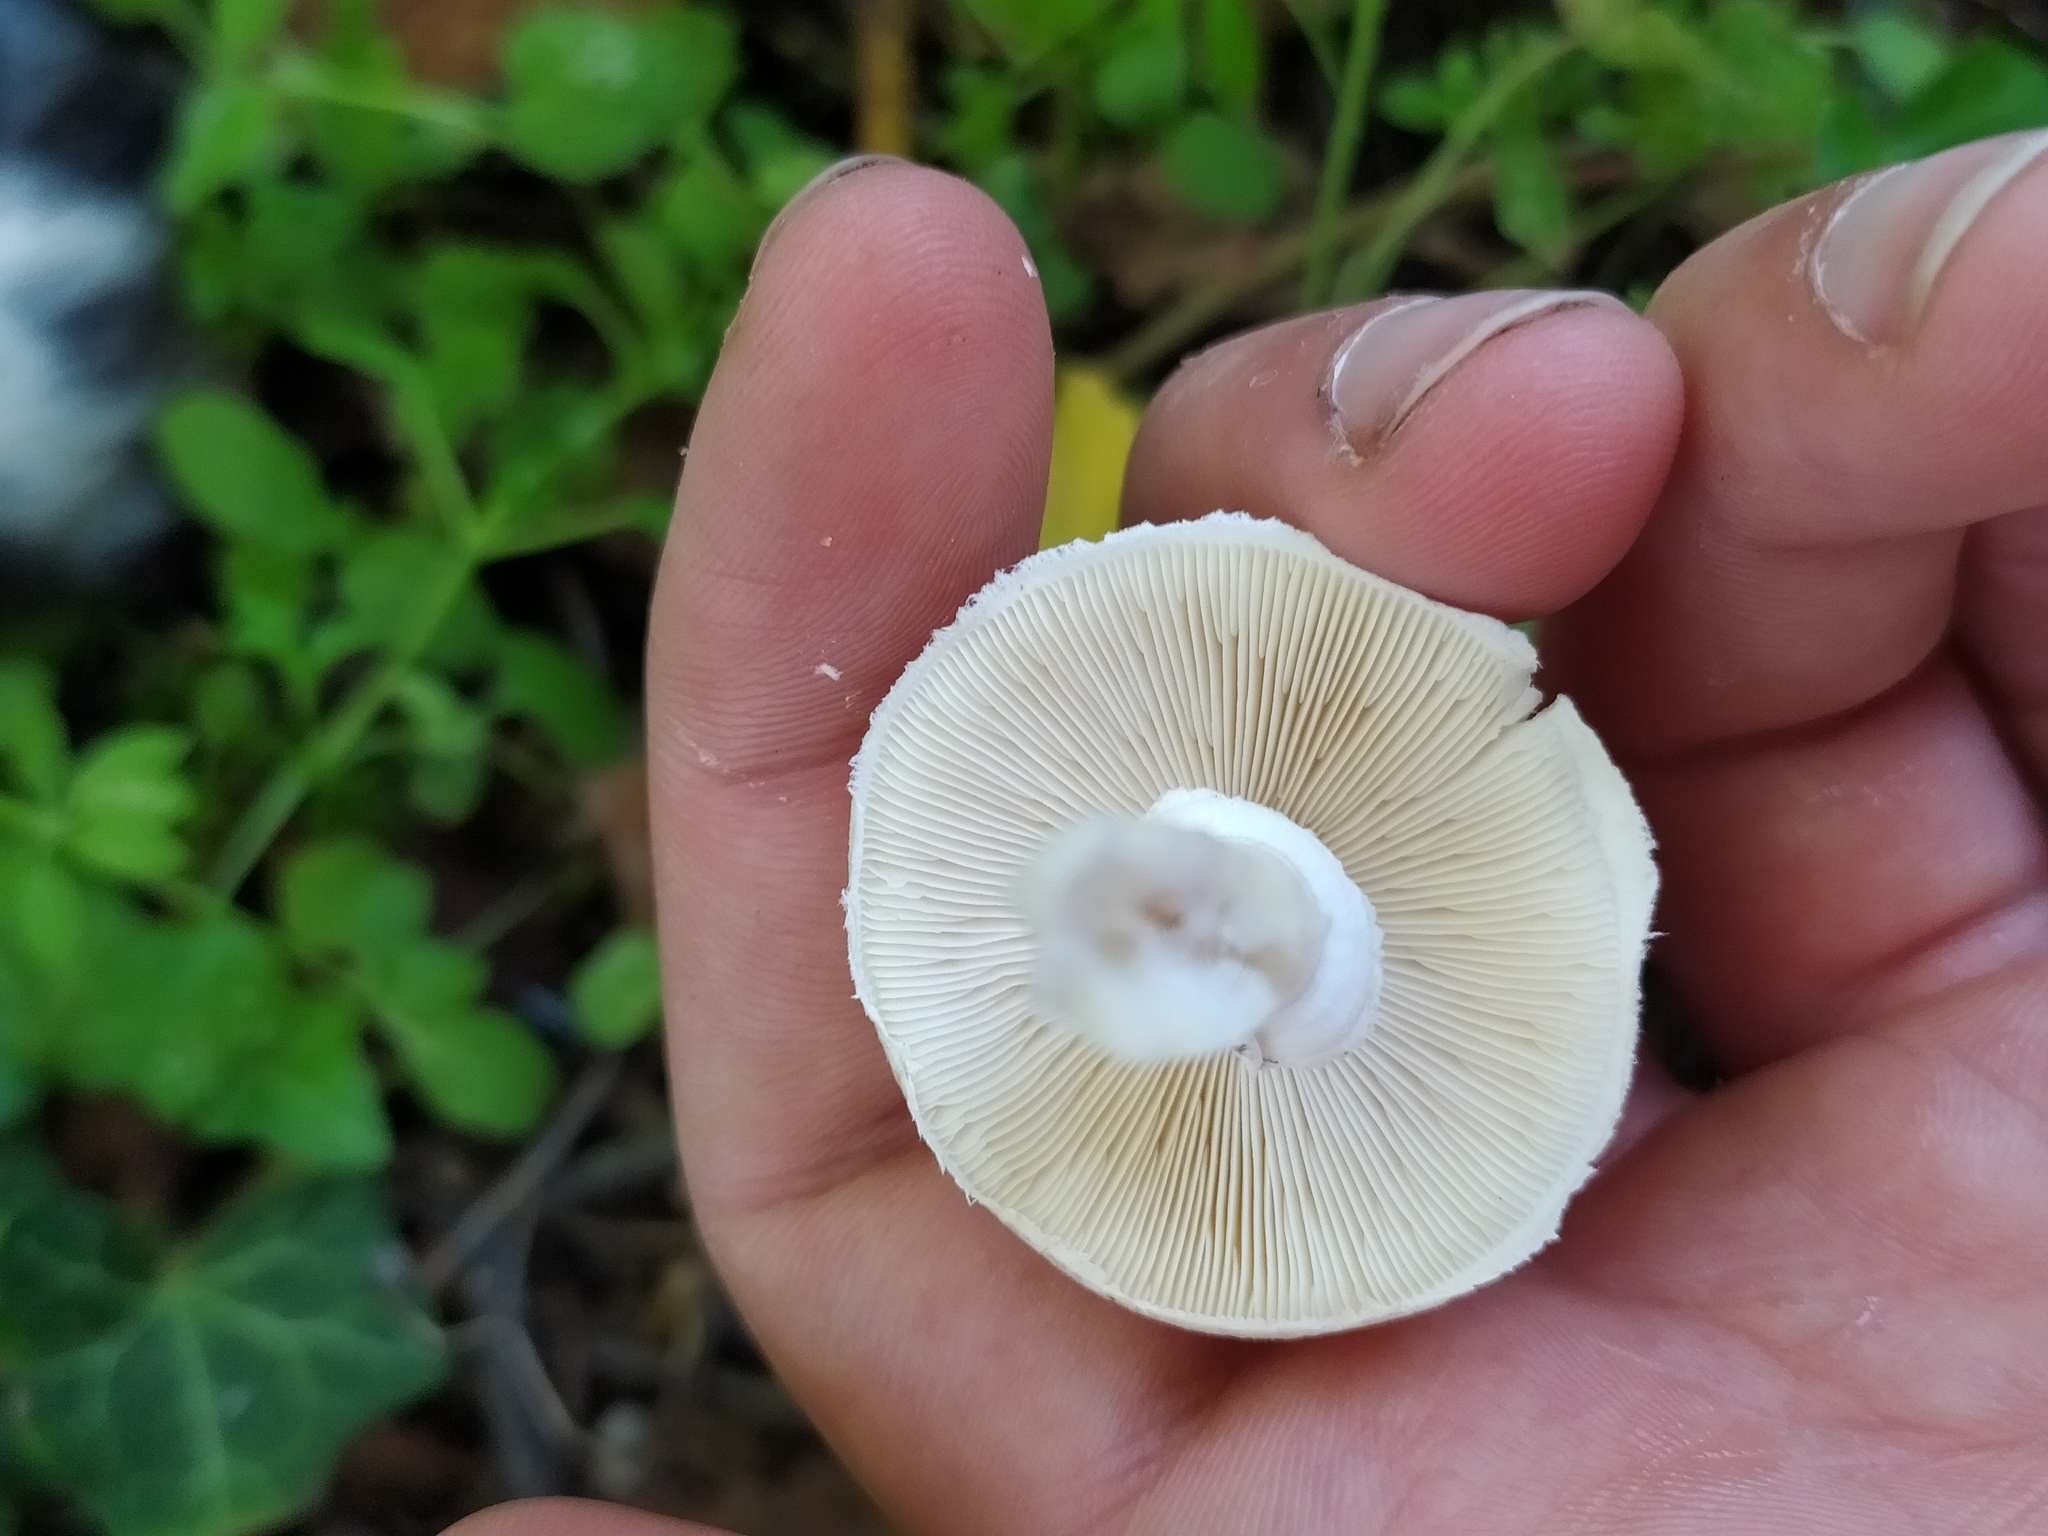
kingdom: Fungi
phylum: Basidiomycota
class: Agaricomycetes
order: Agaricales
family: Agaricaceae
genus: Leucoagaricus
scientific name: Leucoagaricus leucothites
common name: White dapperling
